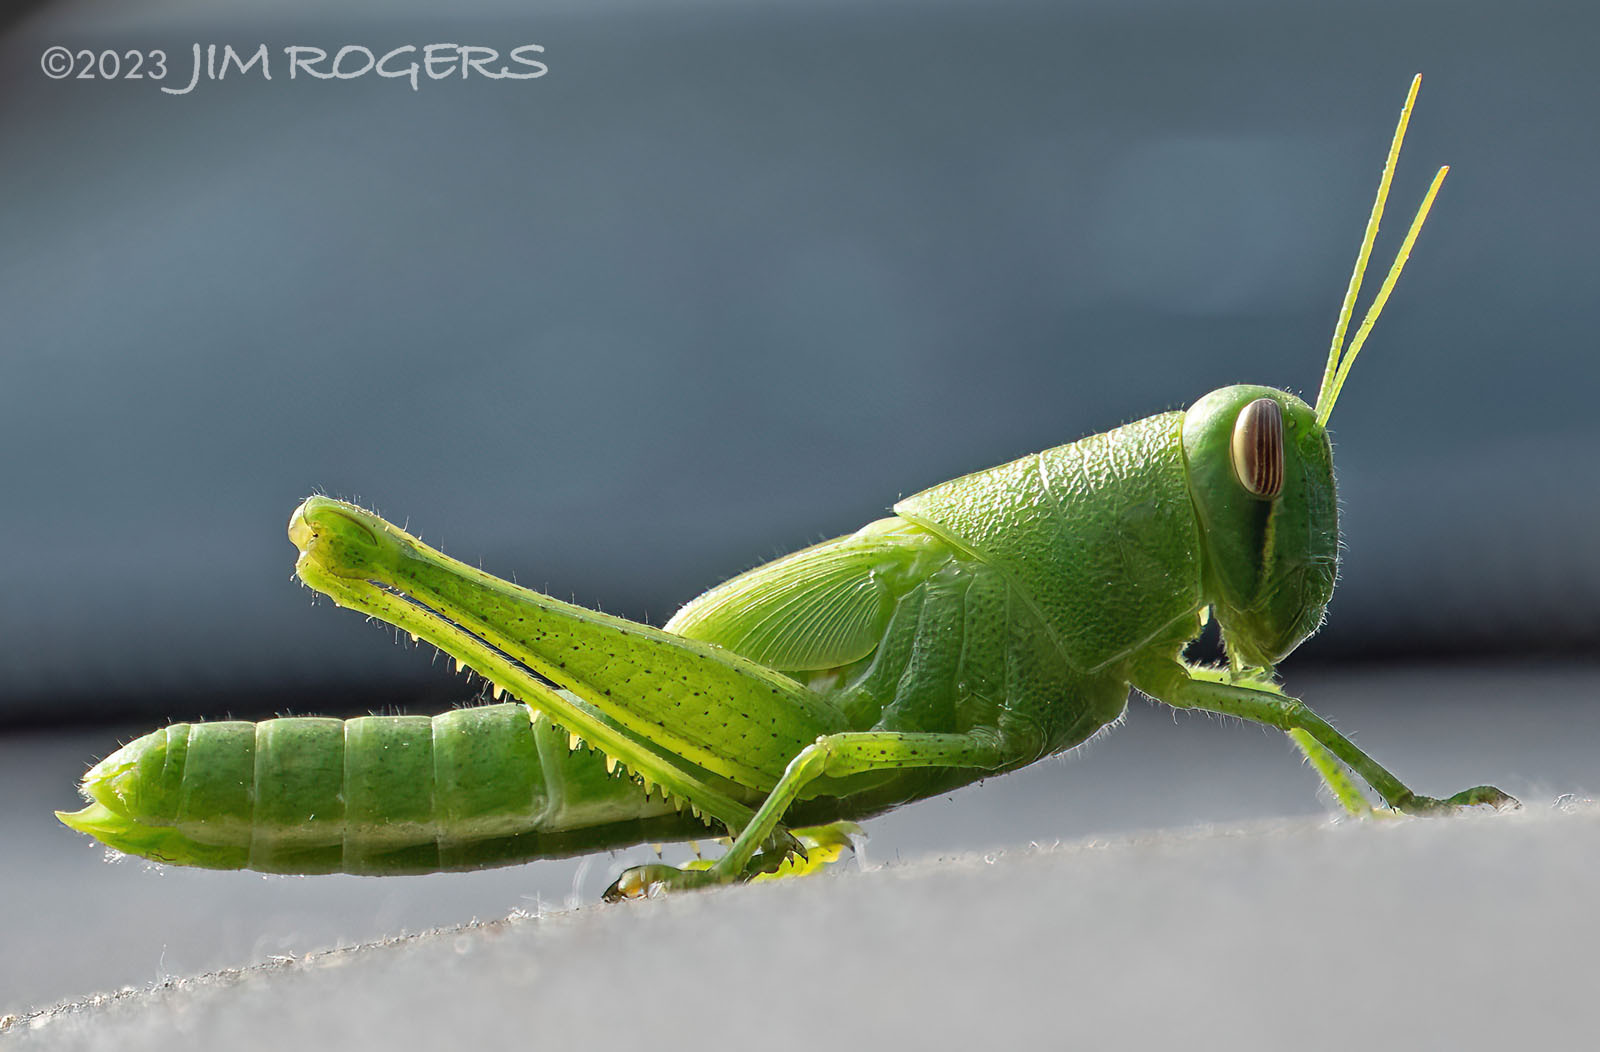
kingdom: Animalia
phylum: Arthropoda
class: Insecta
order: Orthoptera
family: Acrididae
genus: Schistocerca
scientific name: Schistocerca serialis
